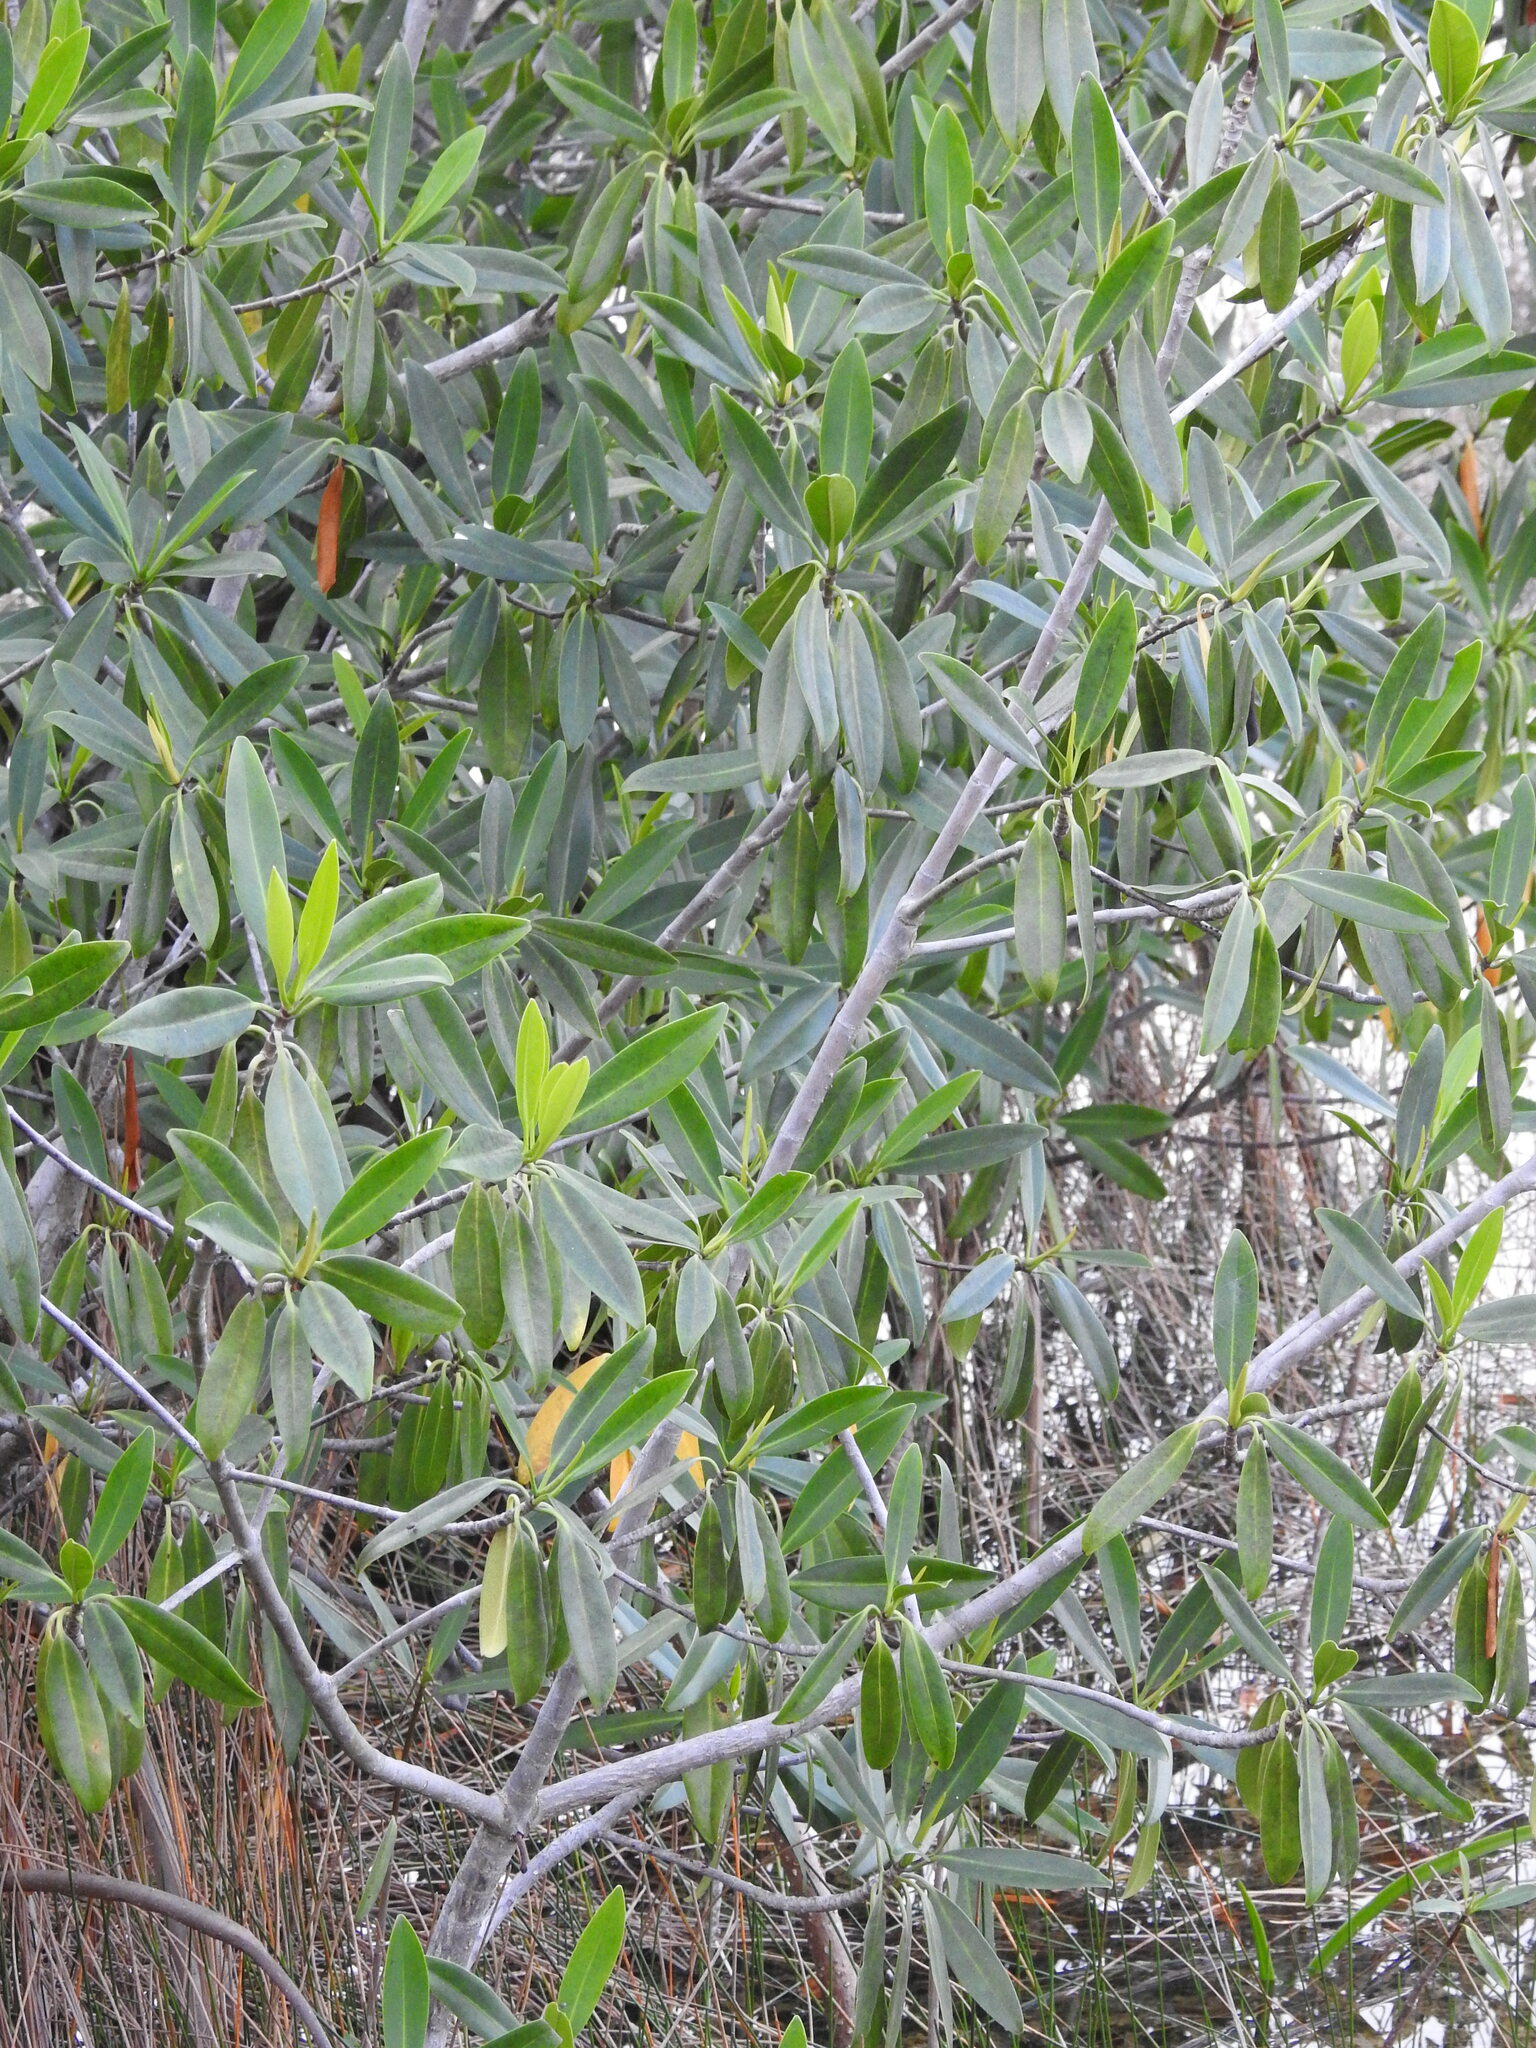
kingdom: Plantae
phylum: Tracheophyta
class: Magnoliopsida
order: Malpighiales
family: Rhizophoraceae
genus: Rhizophora
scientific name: Rhizophora mangle
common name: Red mangrove
